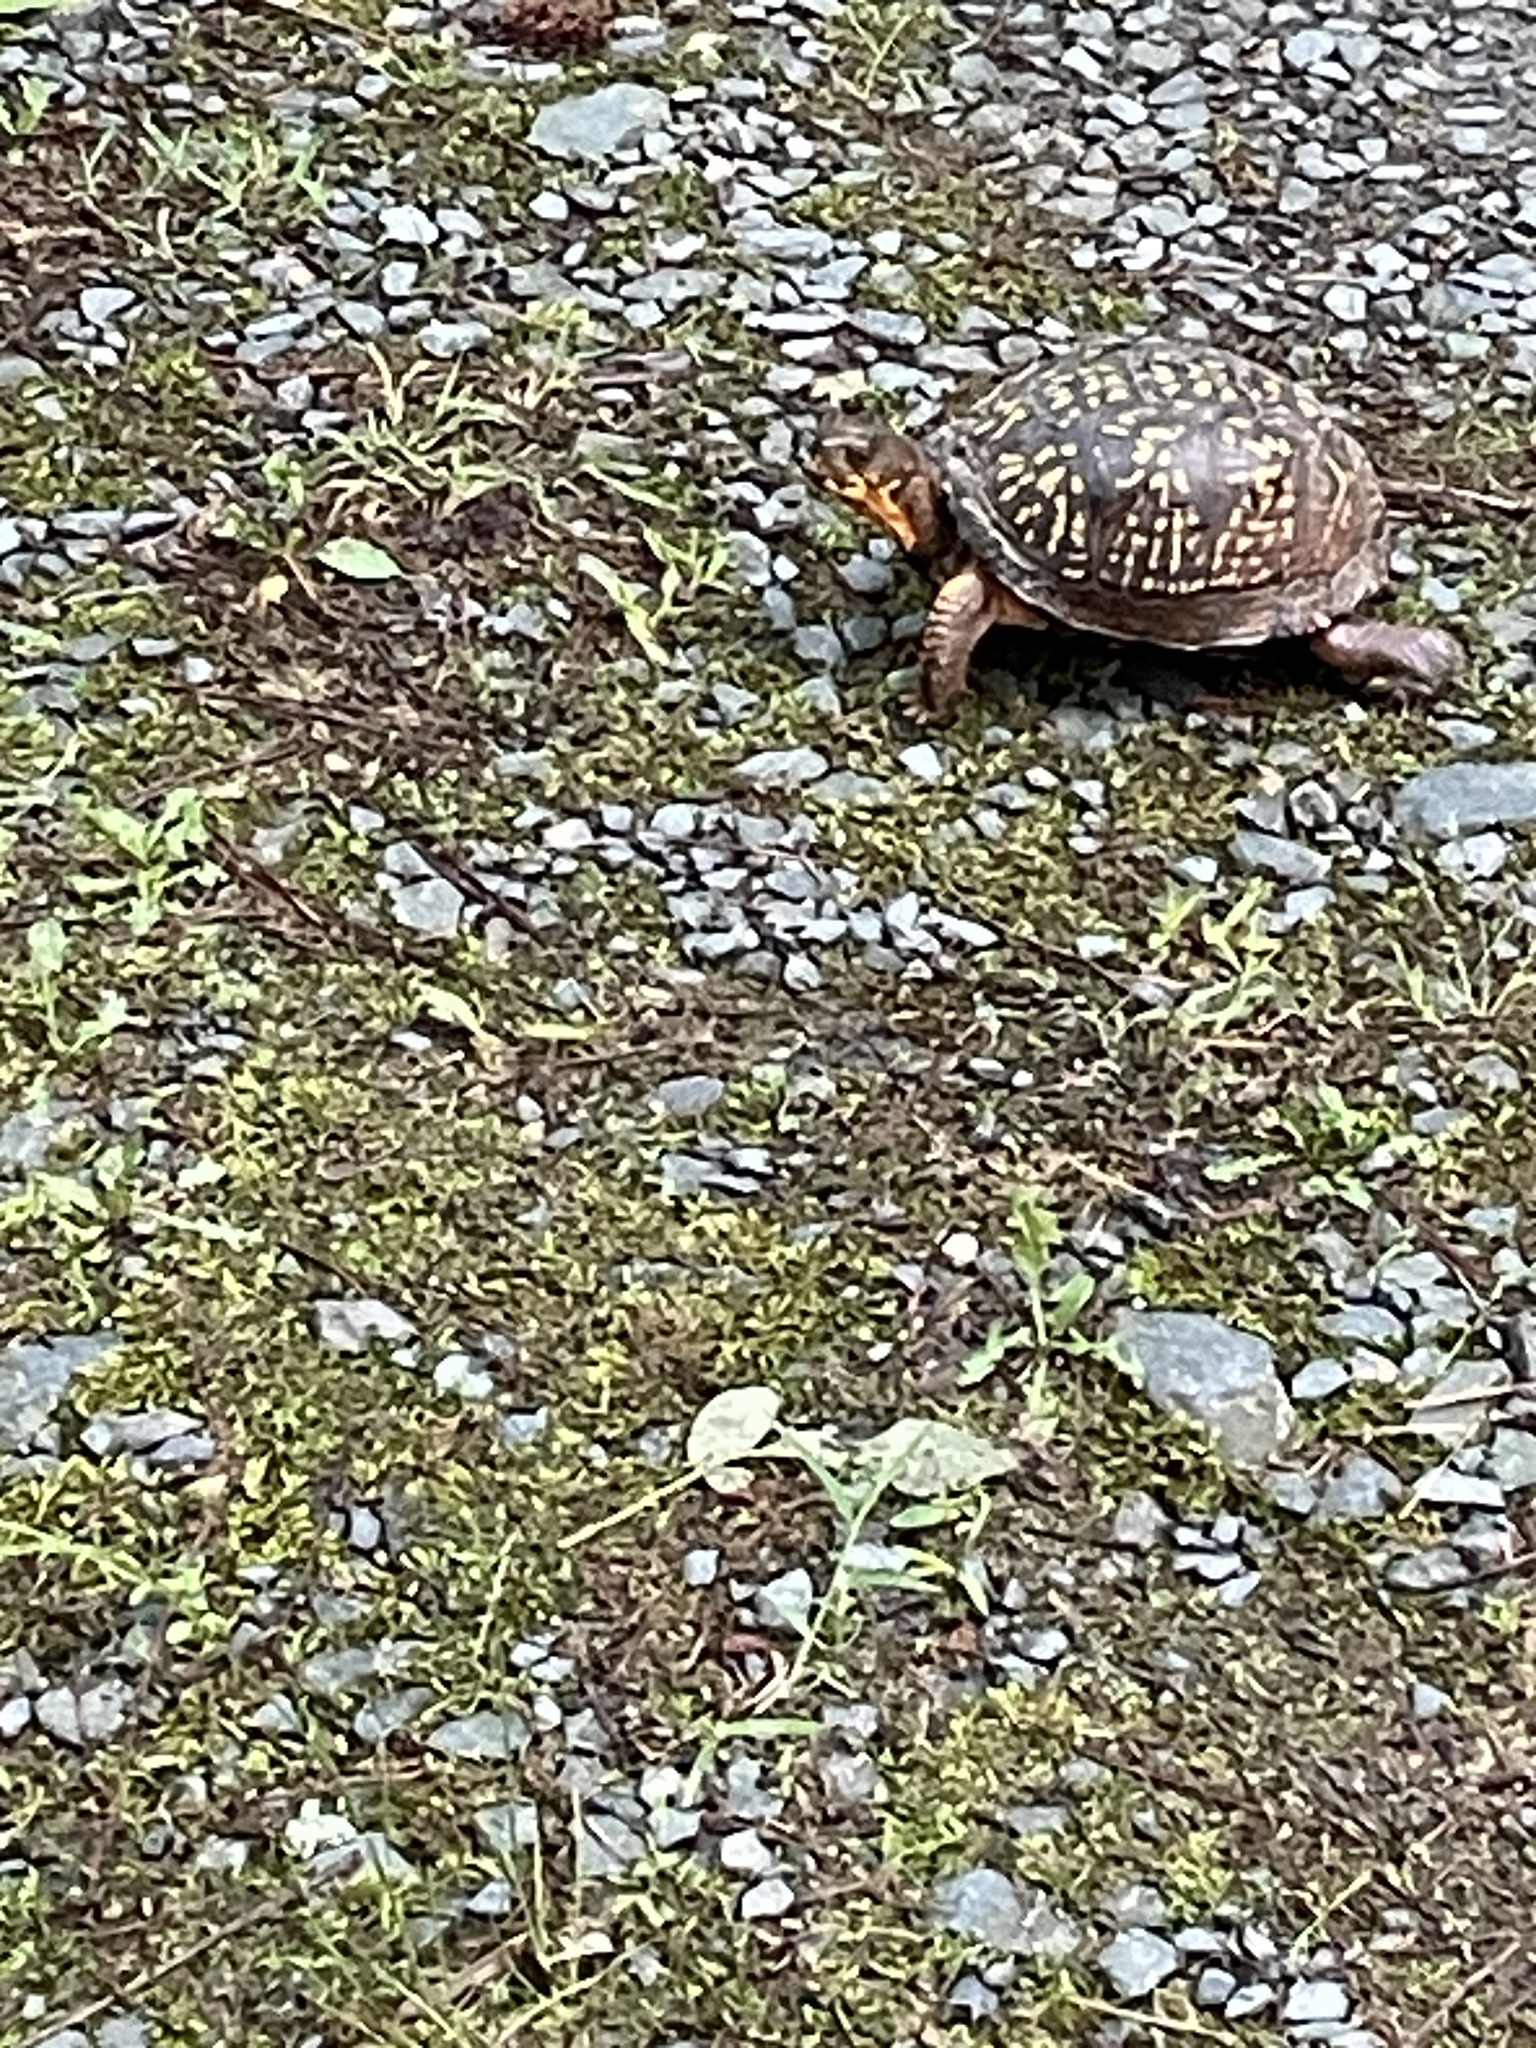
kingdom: Animalia
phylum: Chordata
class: Testudines
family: Emydidae
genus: Terrapene
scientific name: Terrapene carolina
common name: Common box turtle
